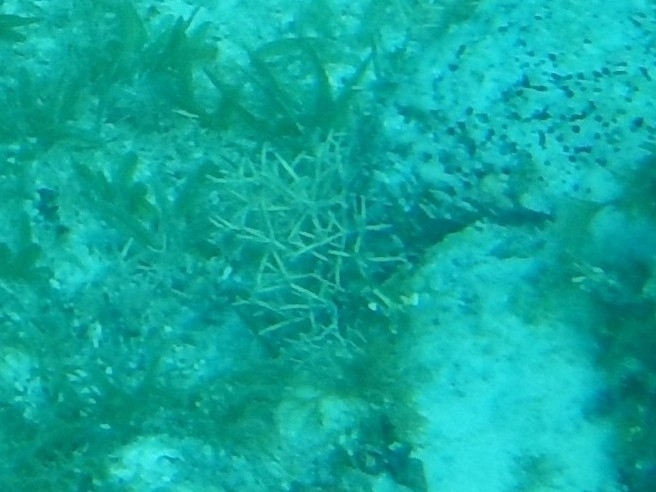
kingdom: Animalia
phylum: Cnidaria
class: Anthozoa
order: Scleractinia
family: Acroporidae
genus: Acropora
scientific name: Acropora cervicornis
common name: Staghorn coral
